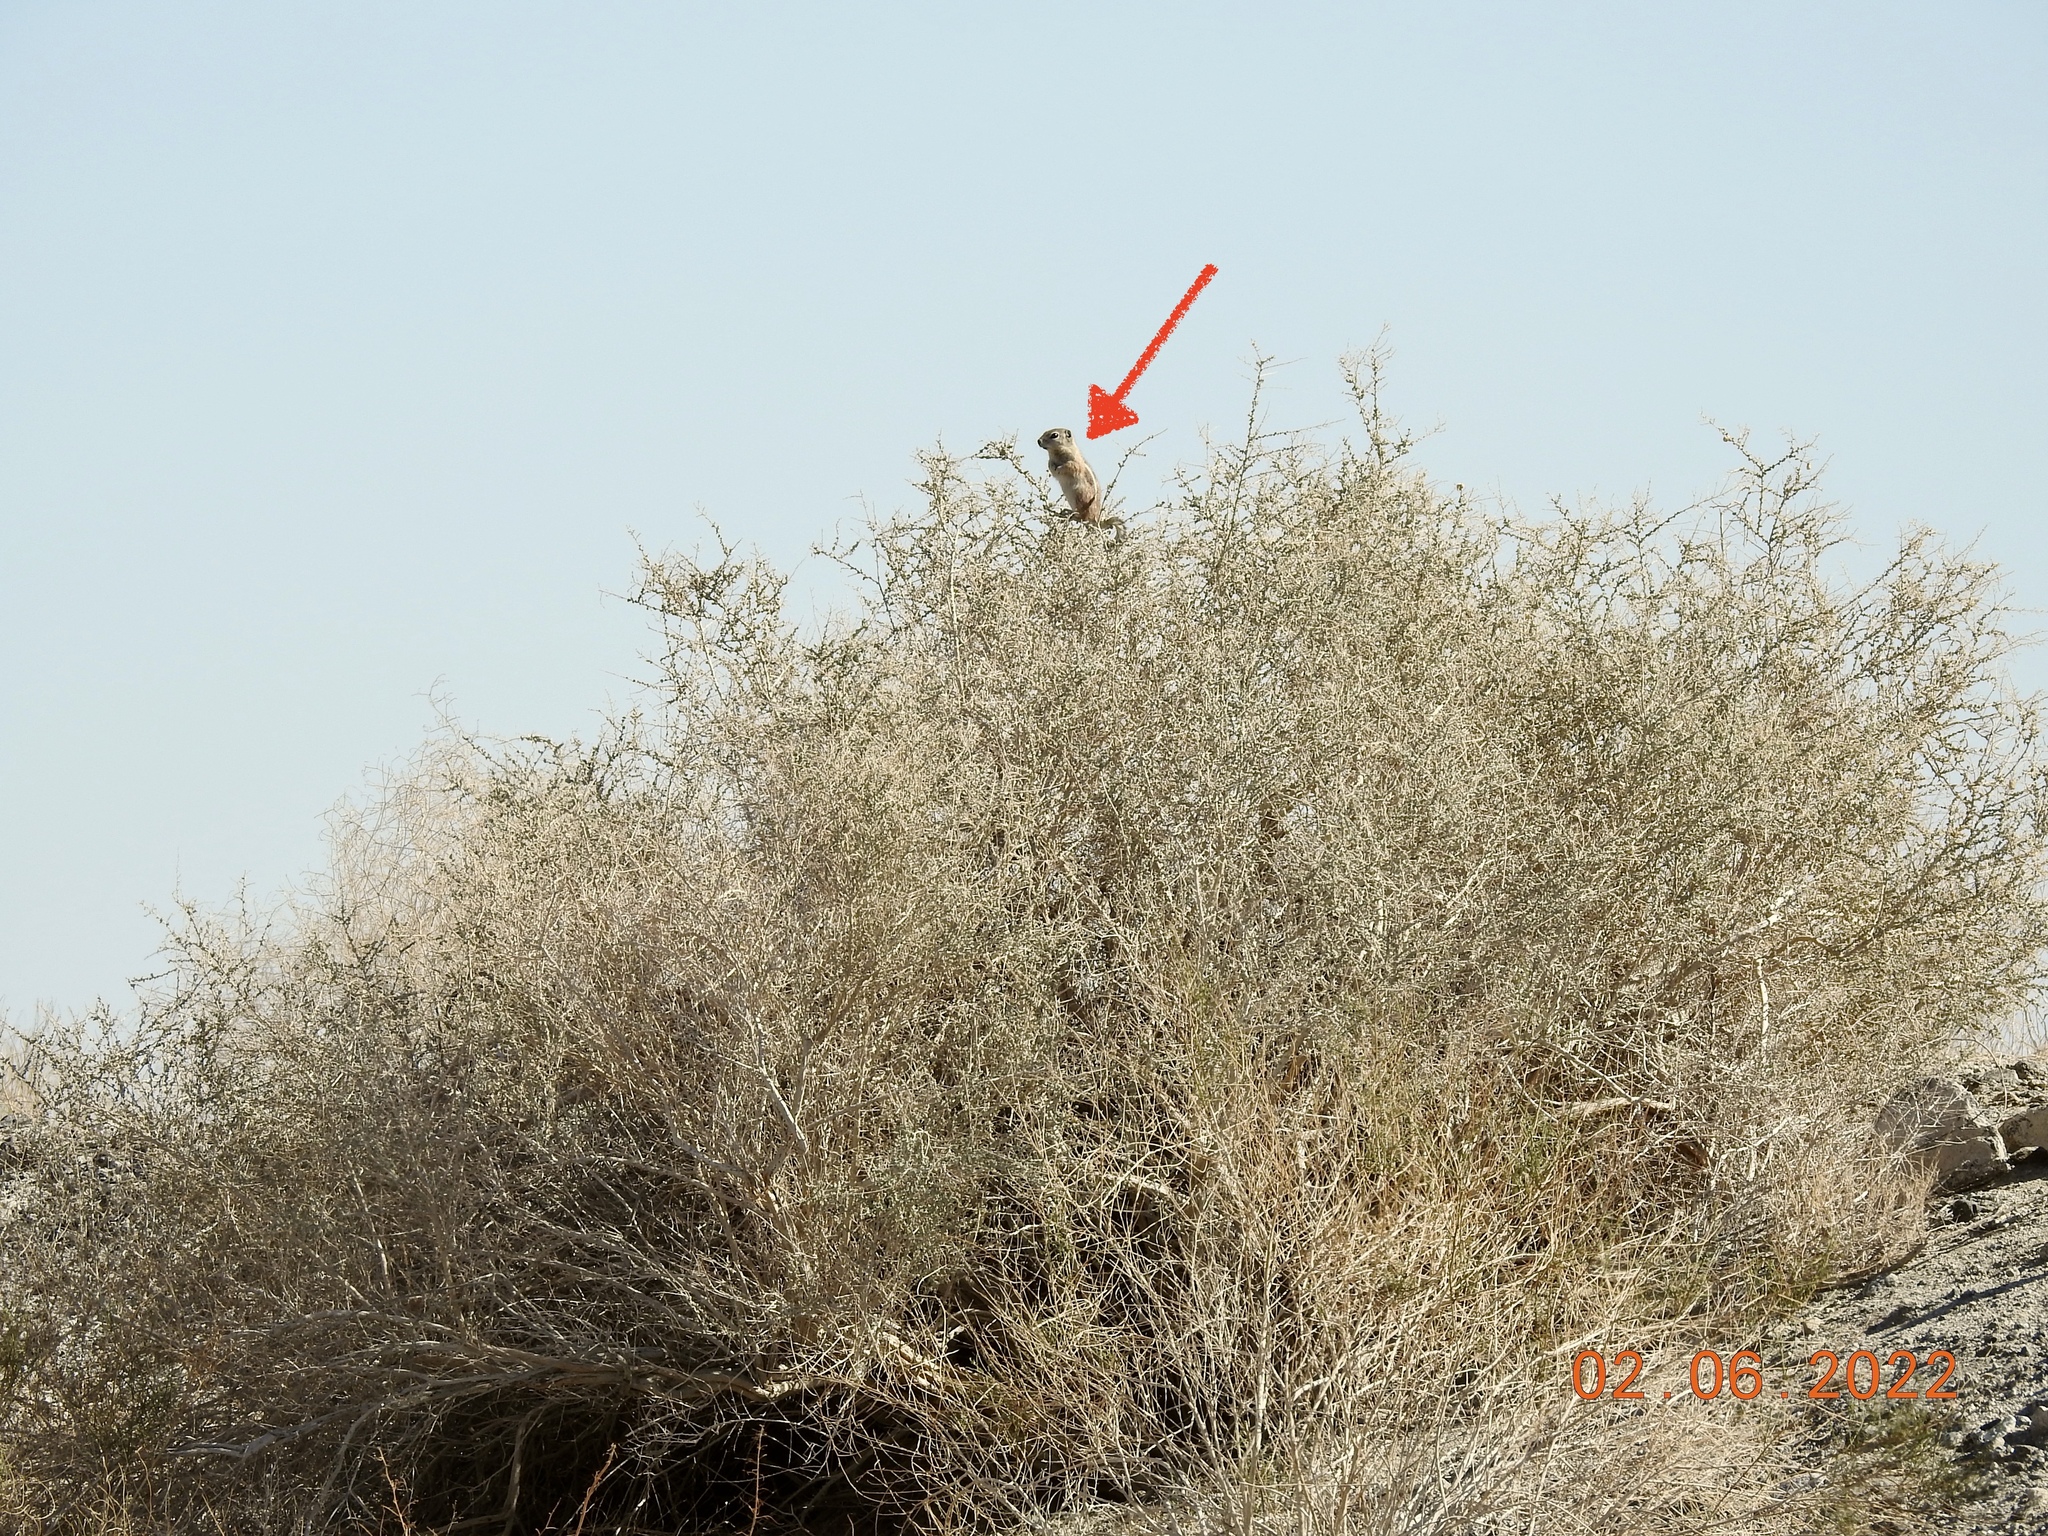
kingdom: Animalia
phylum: Chordata
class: Mammalia
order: Rodentia
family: Sciuridae
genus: Ammospermophilus
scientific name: Ammospermophilus leucurus
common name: White-tailed antelope squirrel
